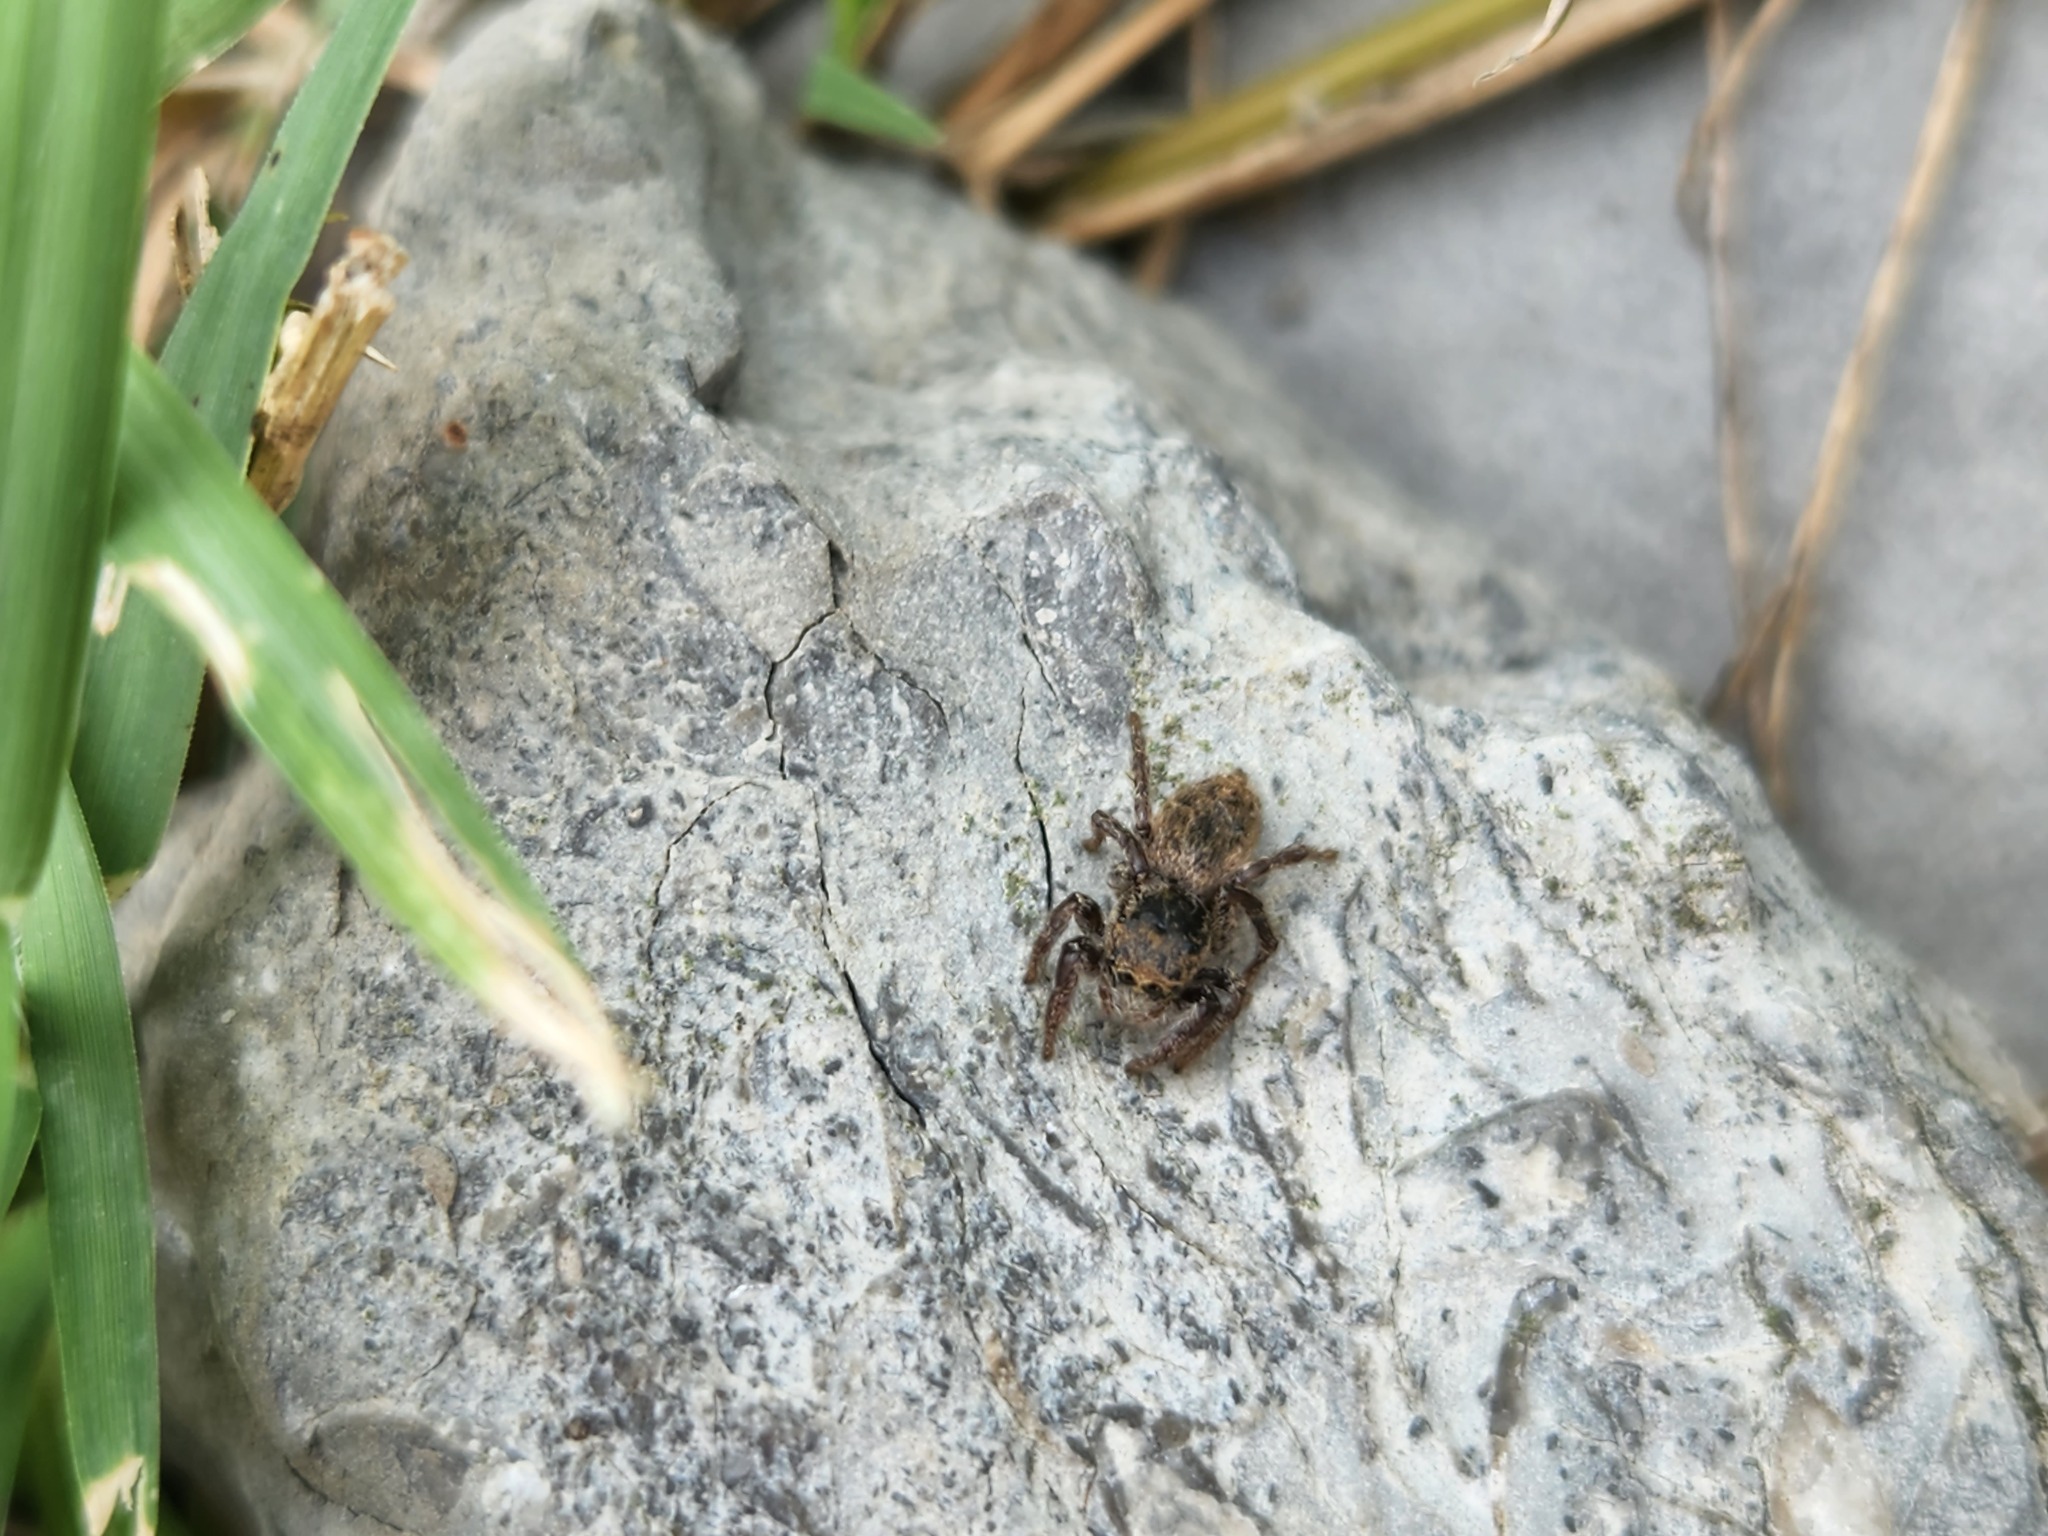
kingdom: Animalia
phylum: Arthropoda
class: Arachnida
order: Araneae
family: Salticidae
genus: Habronattus
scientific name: Habronattus coecatus
